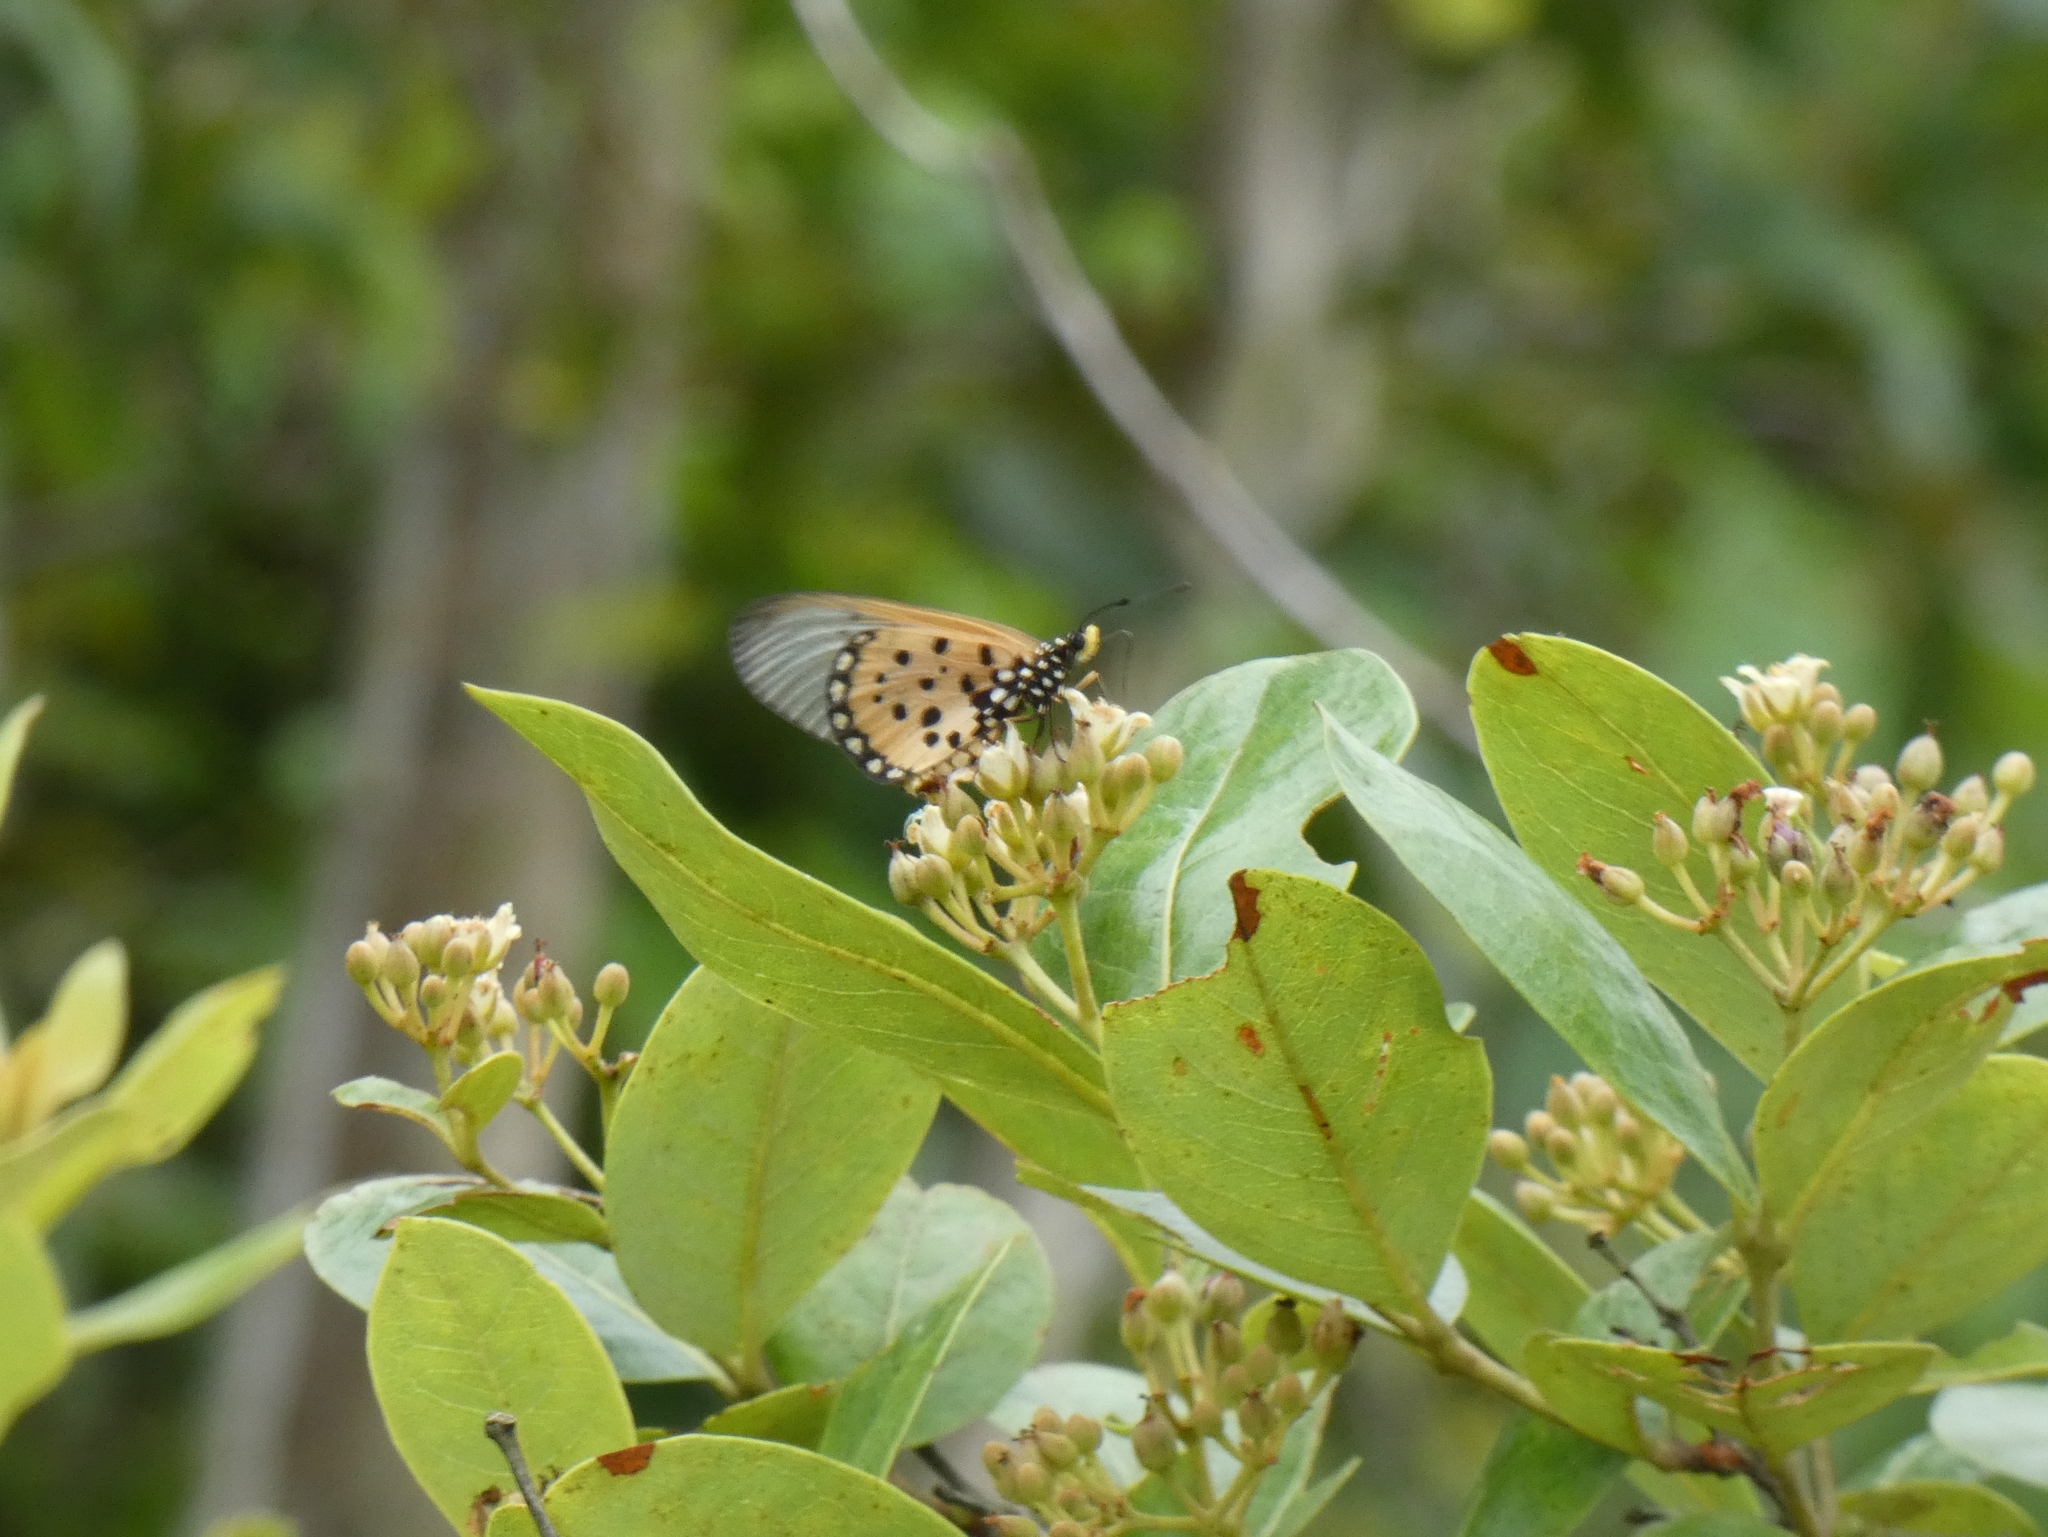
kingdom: Animalia
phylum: Arthropoda
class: Insecta
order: Lepidoptera
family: Nymphalidae
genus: Acraea
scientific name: Acraea neobule
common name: Dancing acraea
